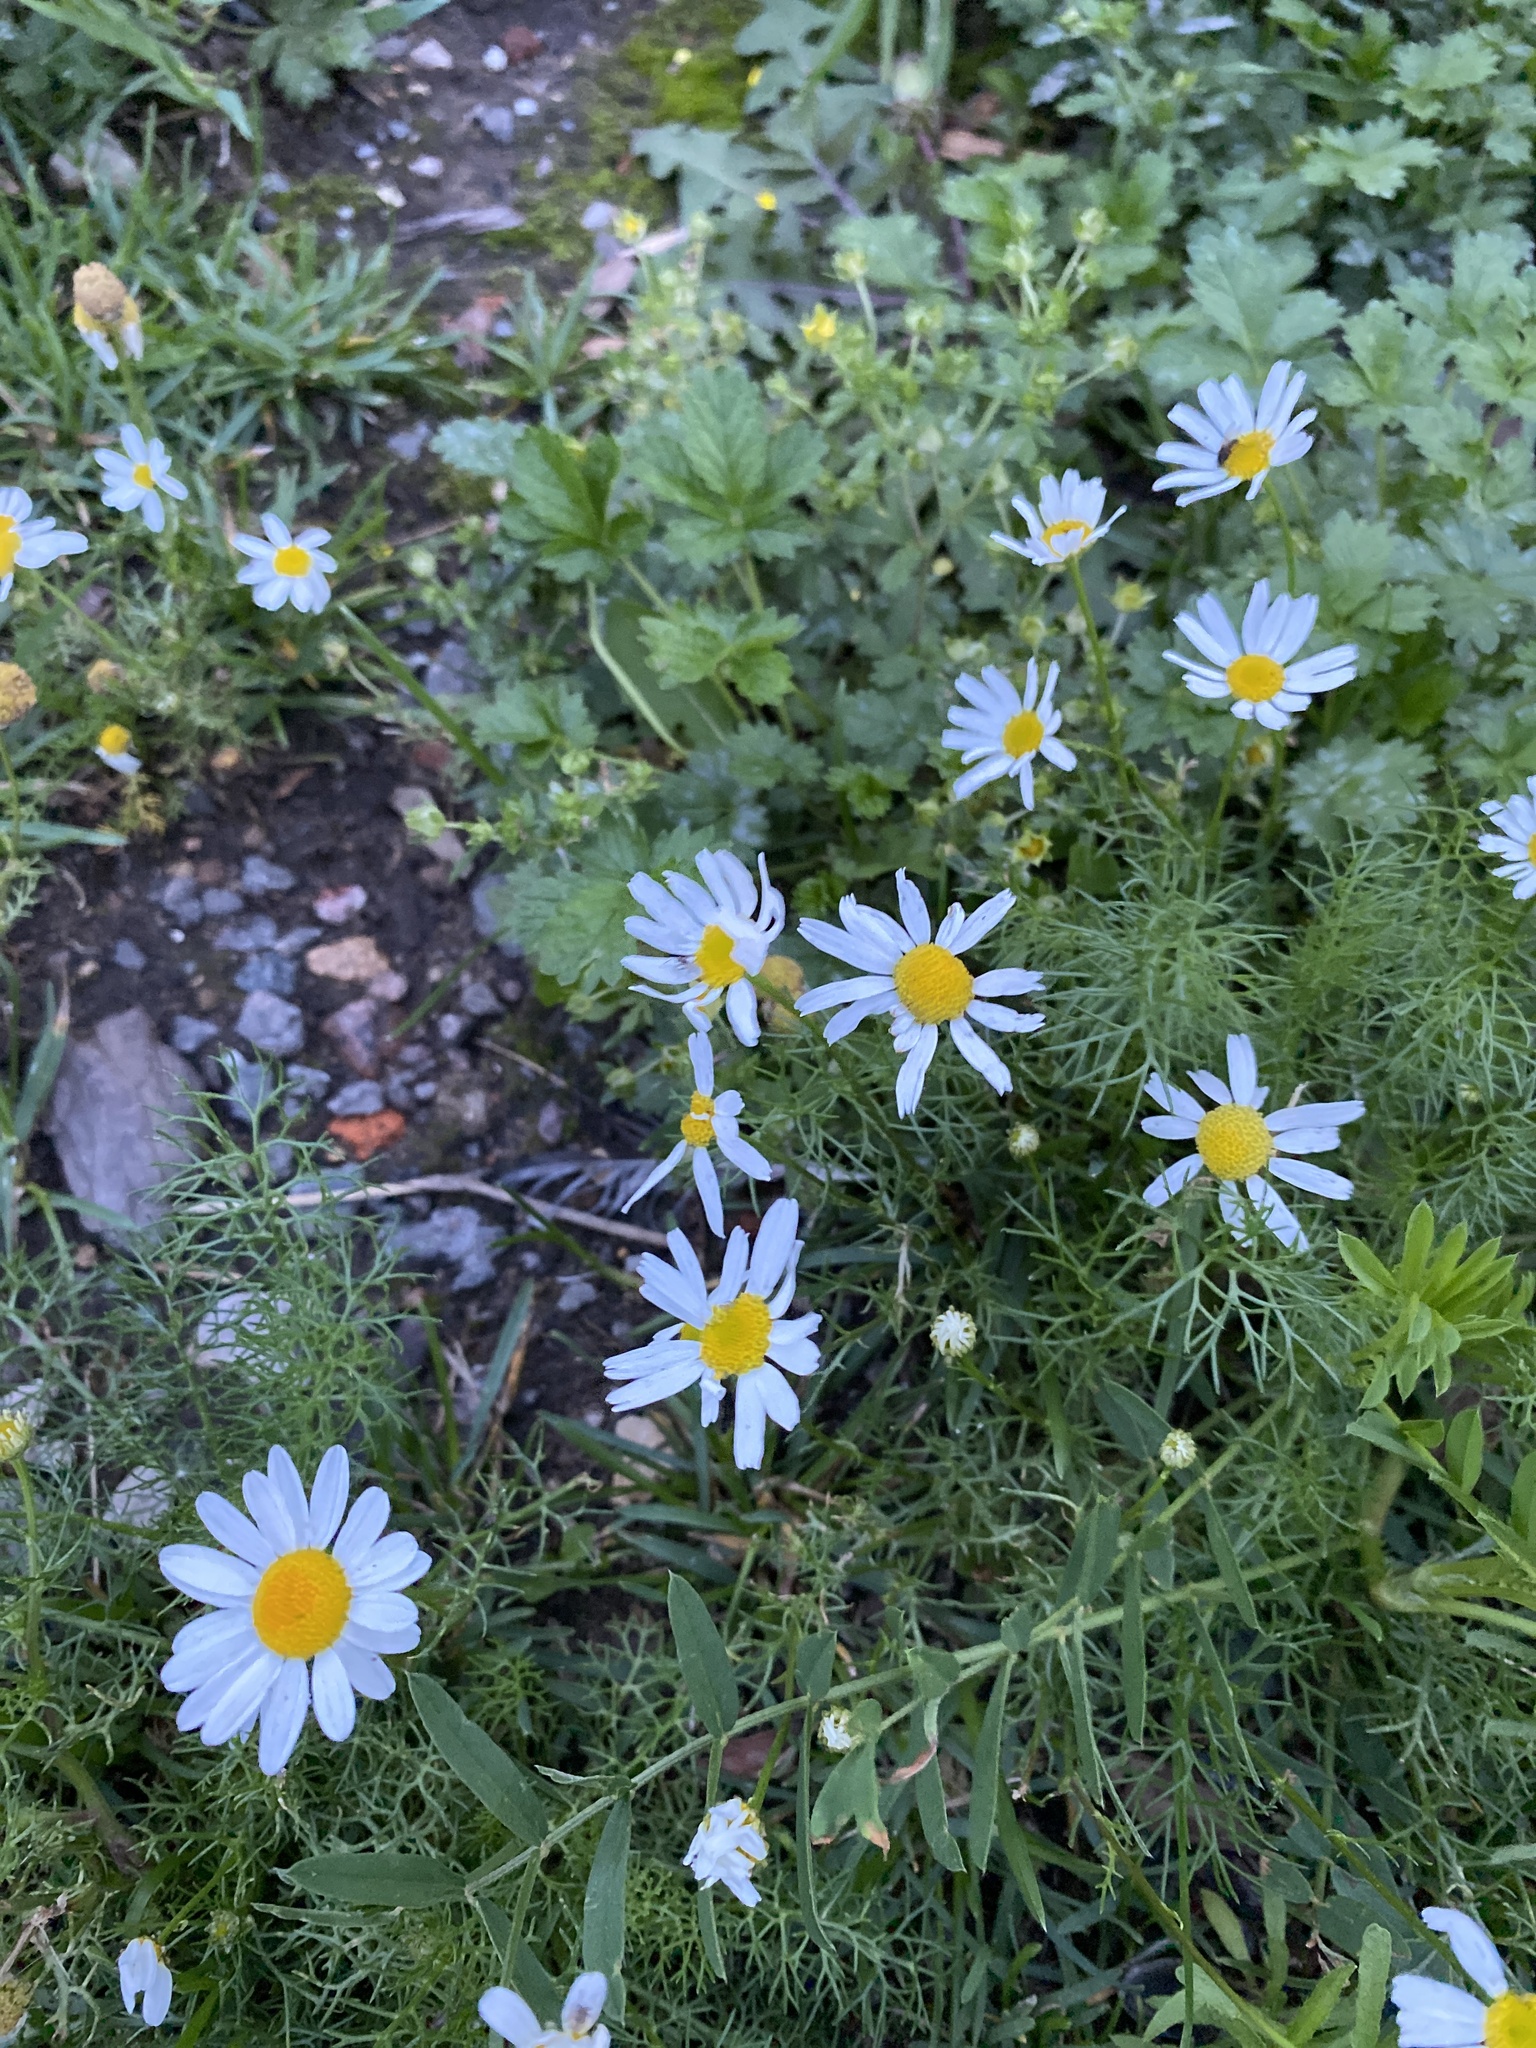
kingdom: Plantae
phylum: Tracheophyta
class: Magnoliopsida
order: Asterales
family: Asteraceae
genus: Tripleurospermum
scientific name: Tripleurospermum inodorum
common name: Scentless mayweed
